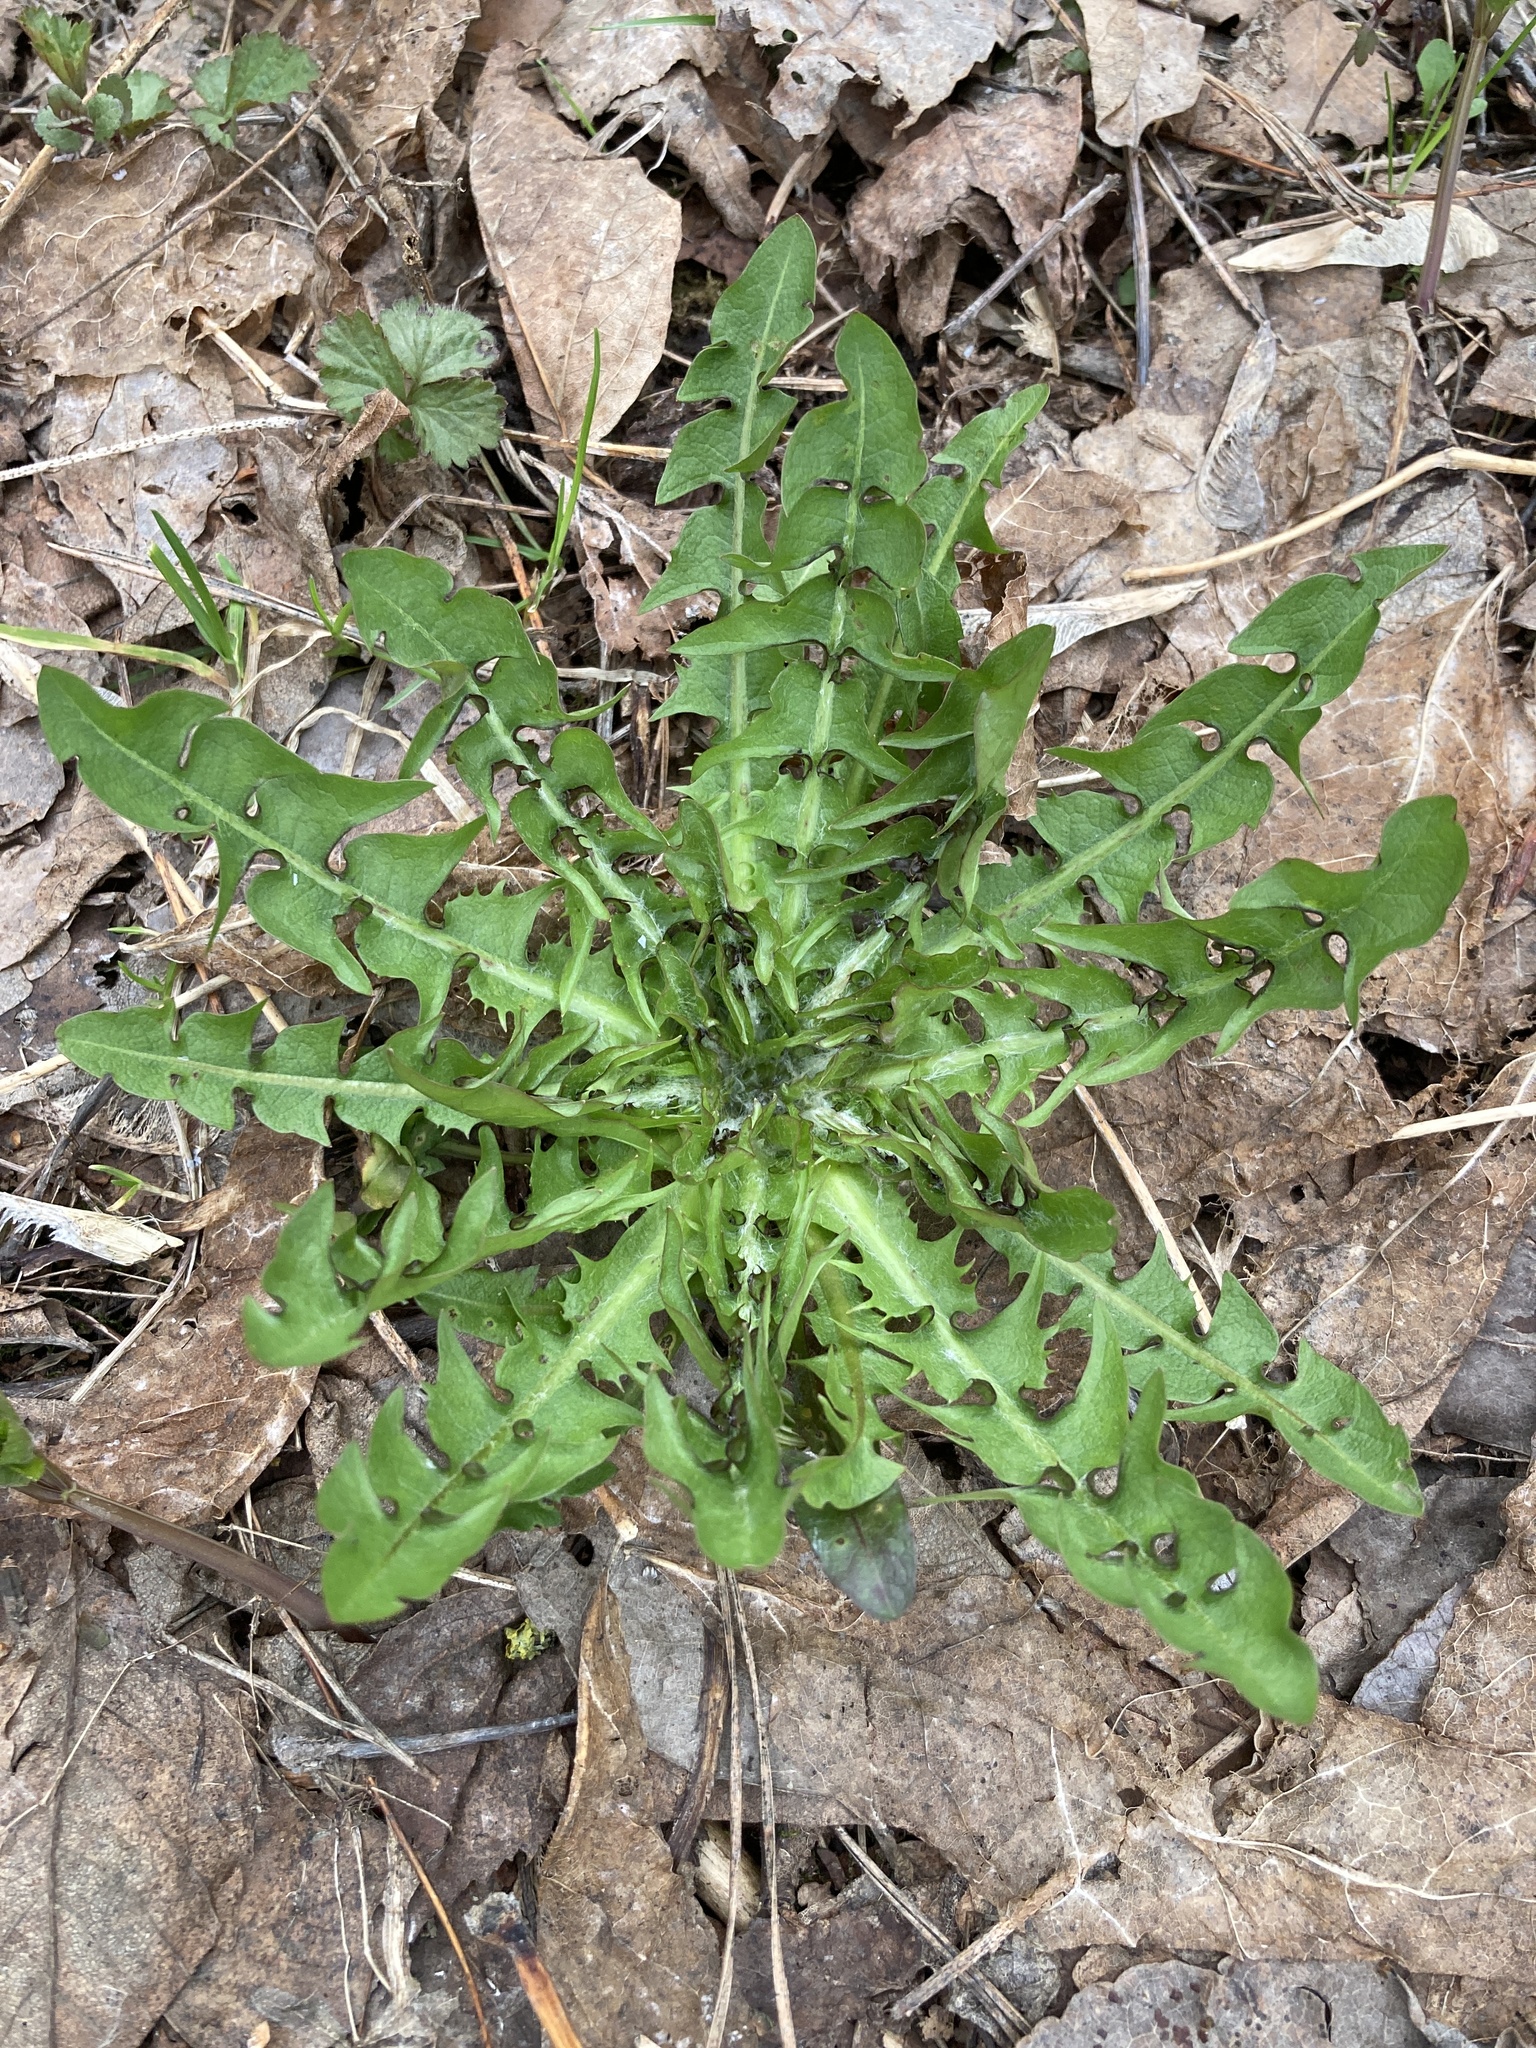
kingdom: Plantae
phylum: Tracheophyta
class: Magnoliopsida
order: Asterales
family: Asteraceae
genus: Taraxacum
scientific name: Taraxacum officinale
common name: Common dandelion
